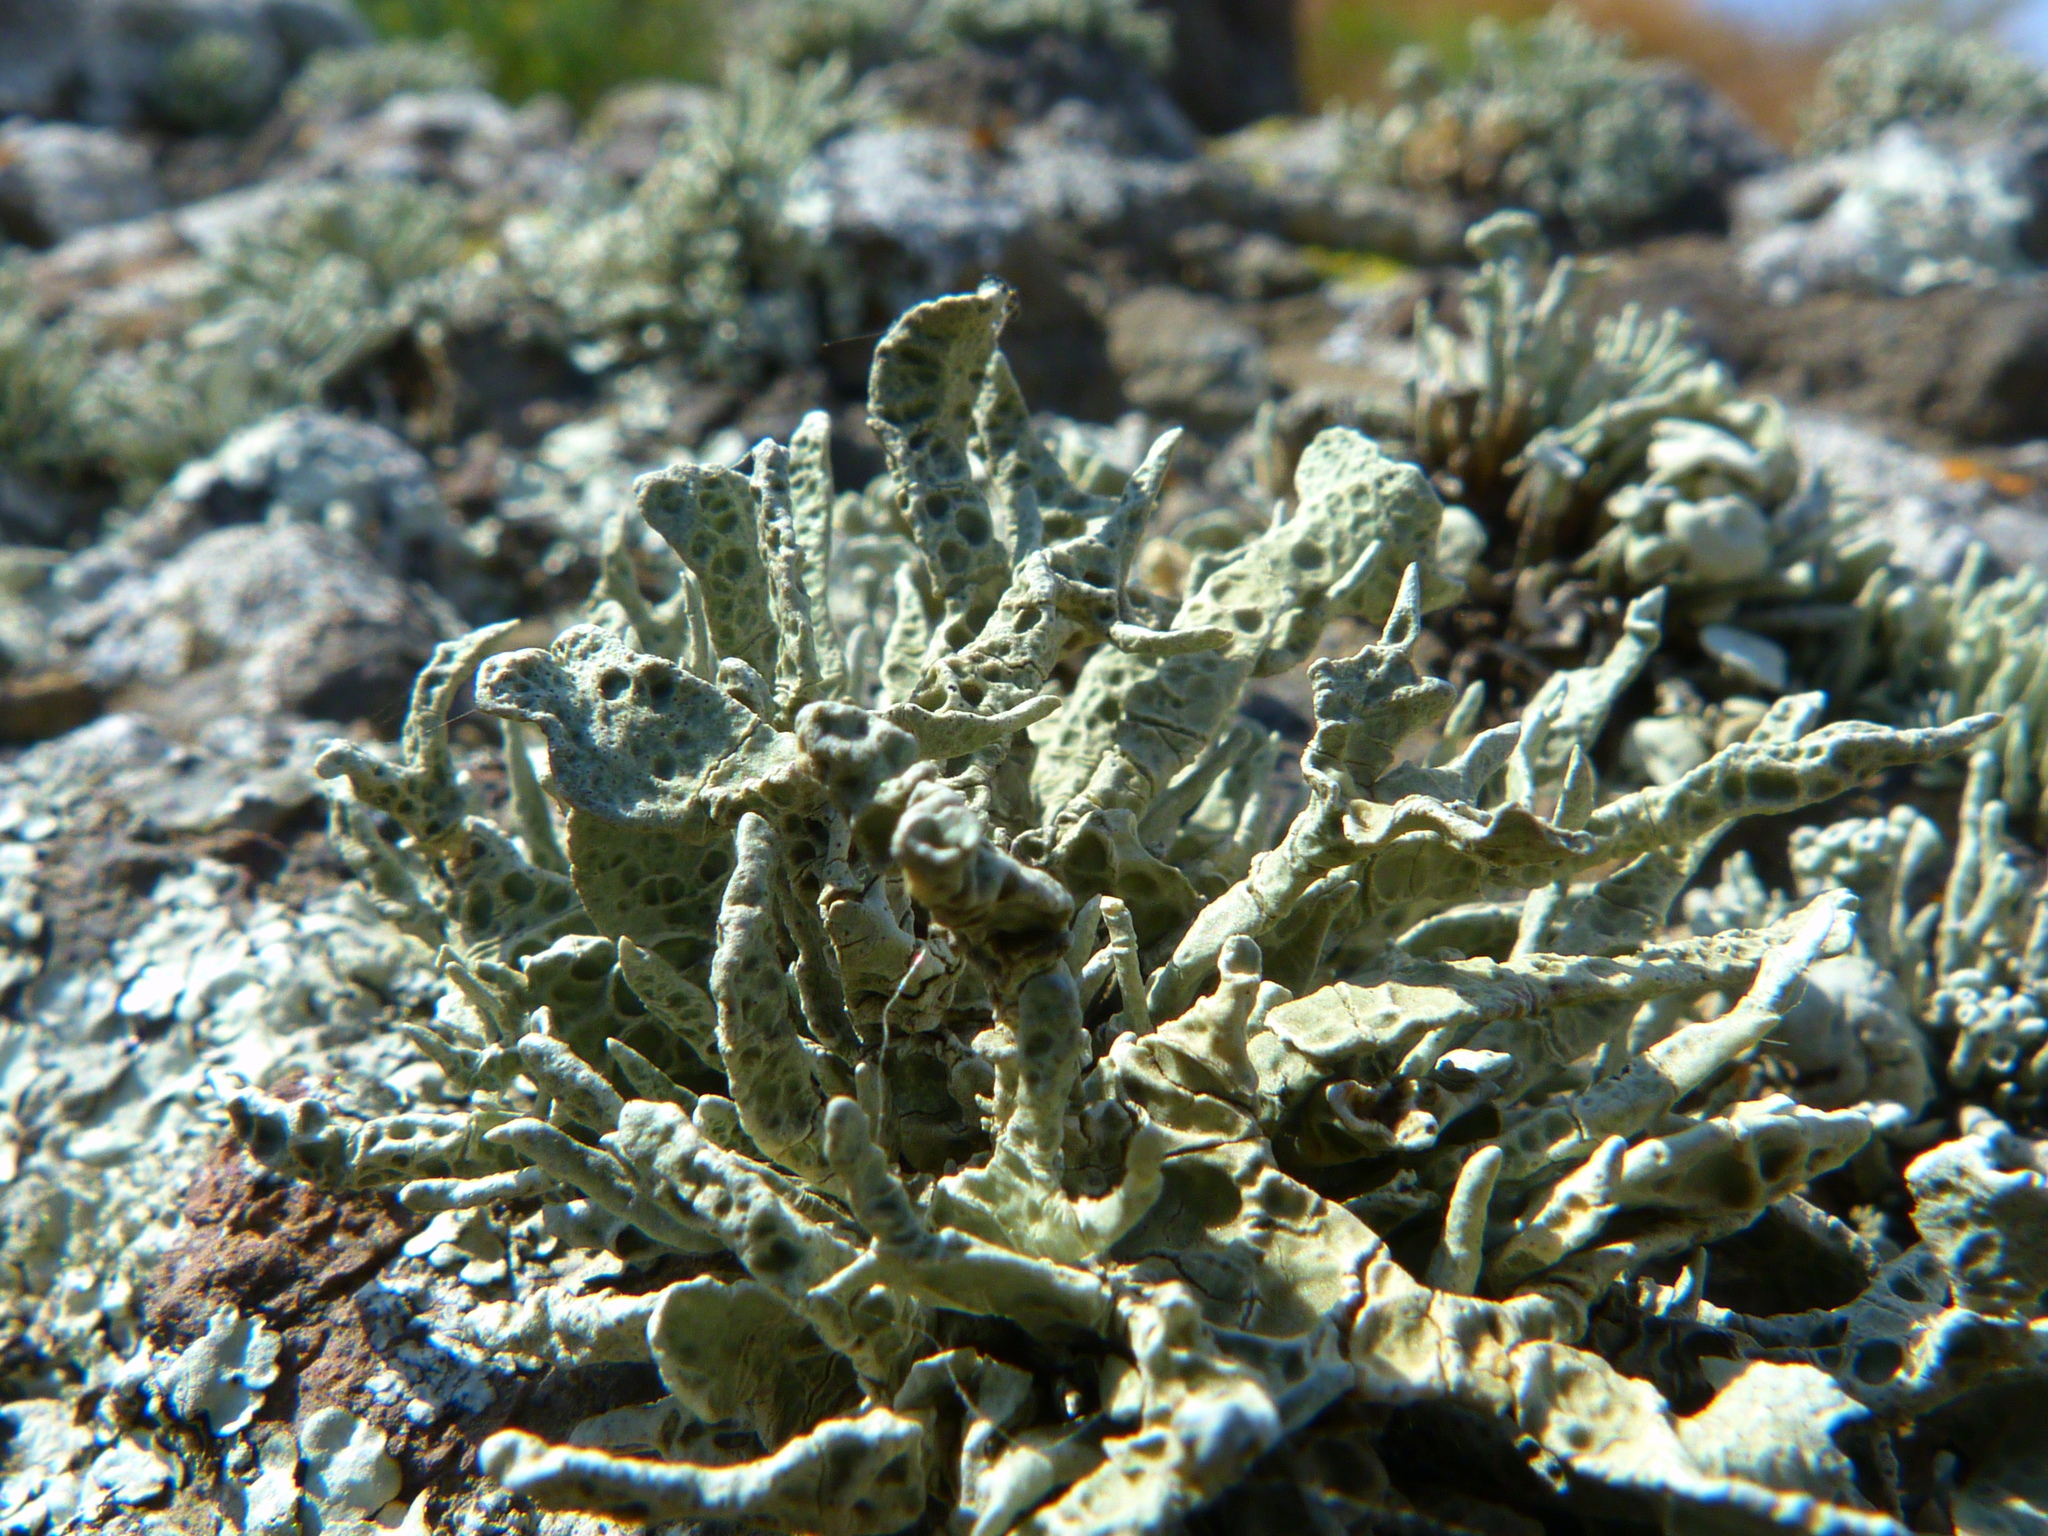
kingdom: Fungi
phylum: Ascomycota
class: Lecanoromycetes
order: Lecanorales
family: Ramalinaceae
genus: Niebla
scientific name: Niebla homalea
